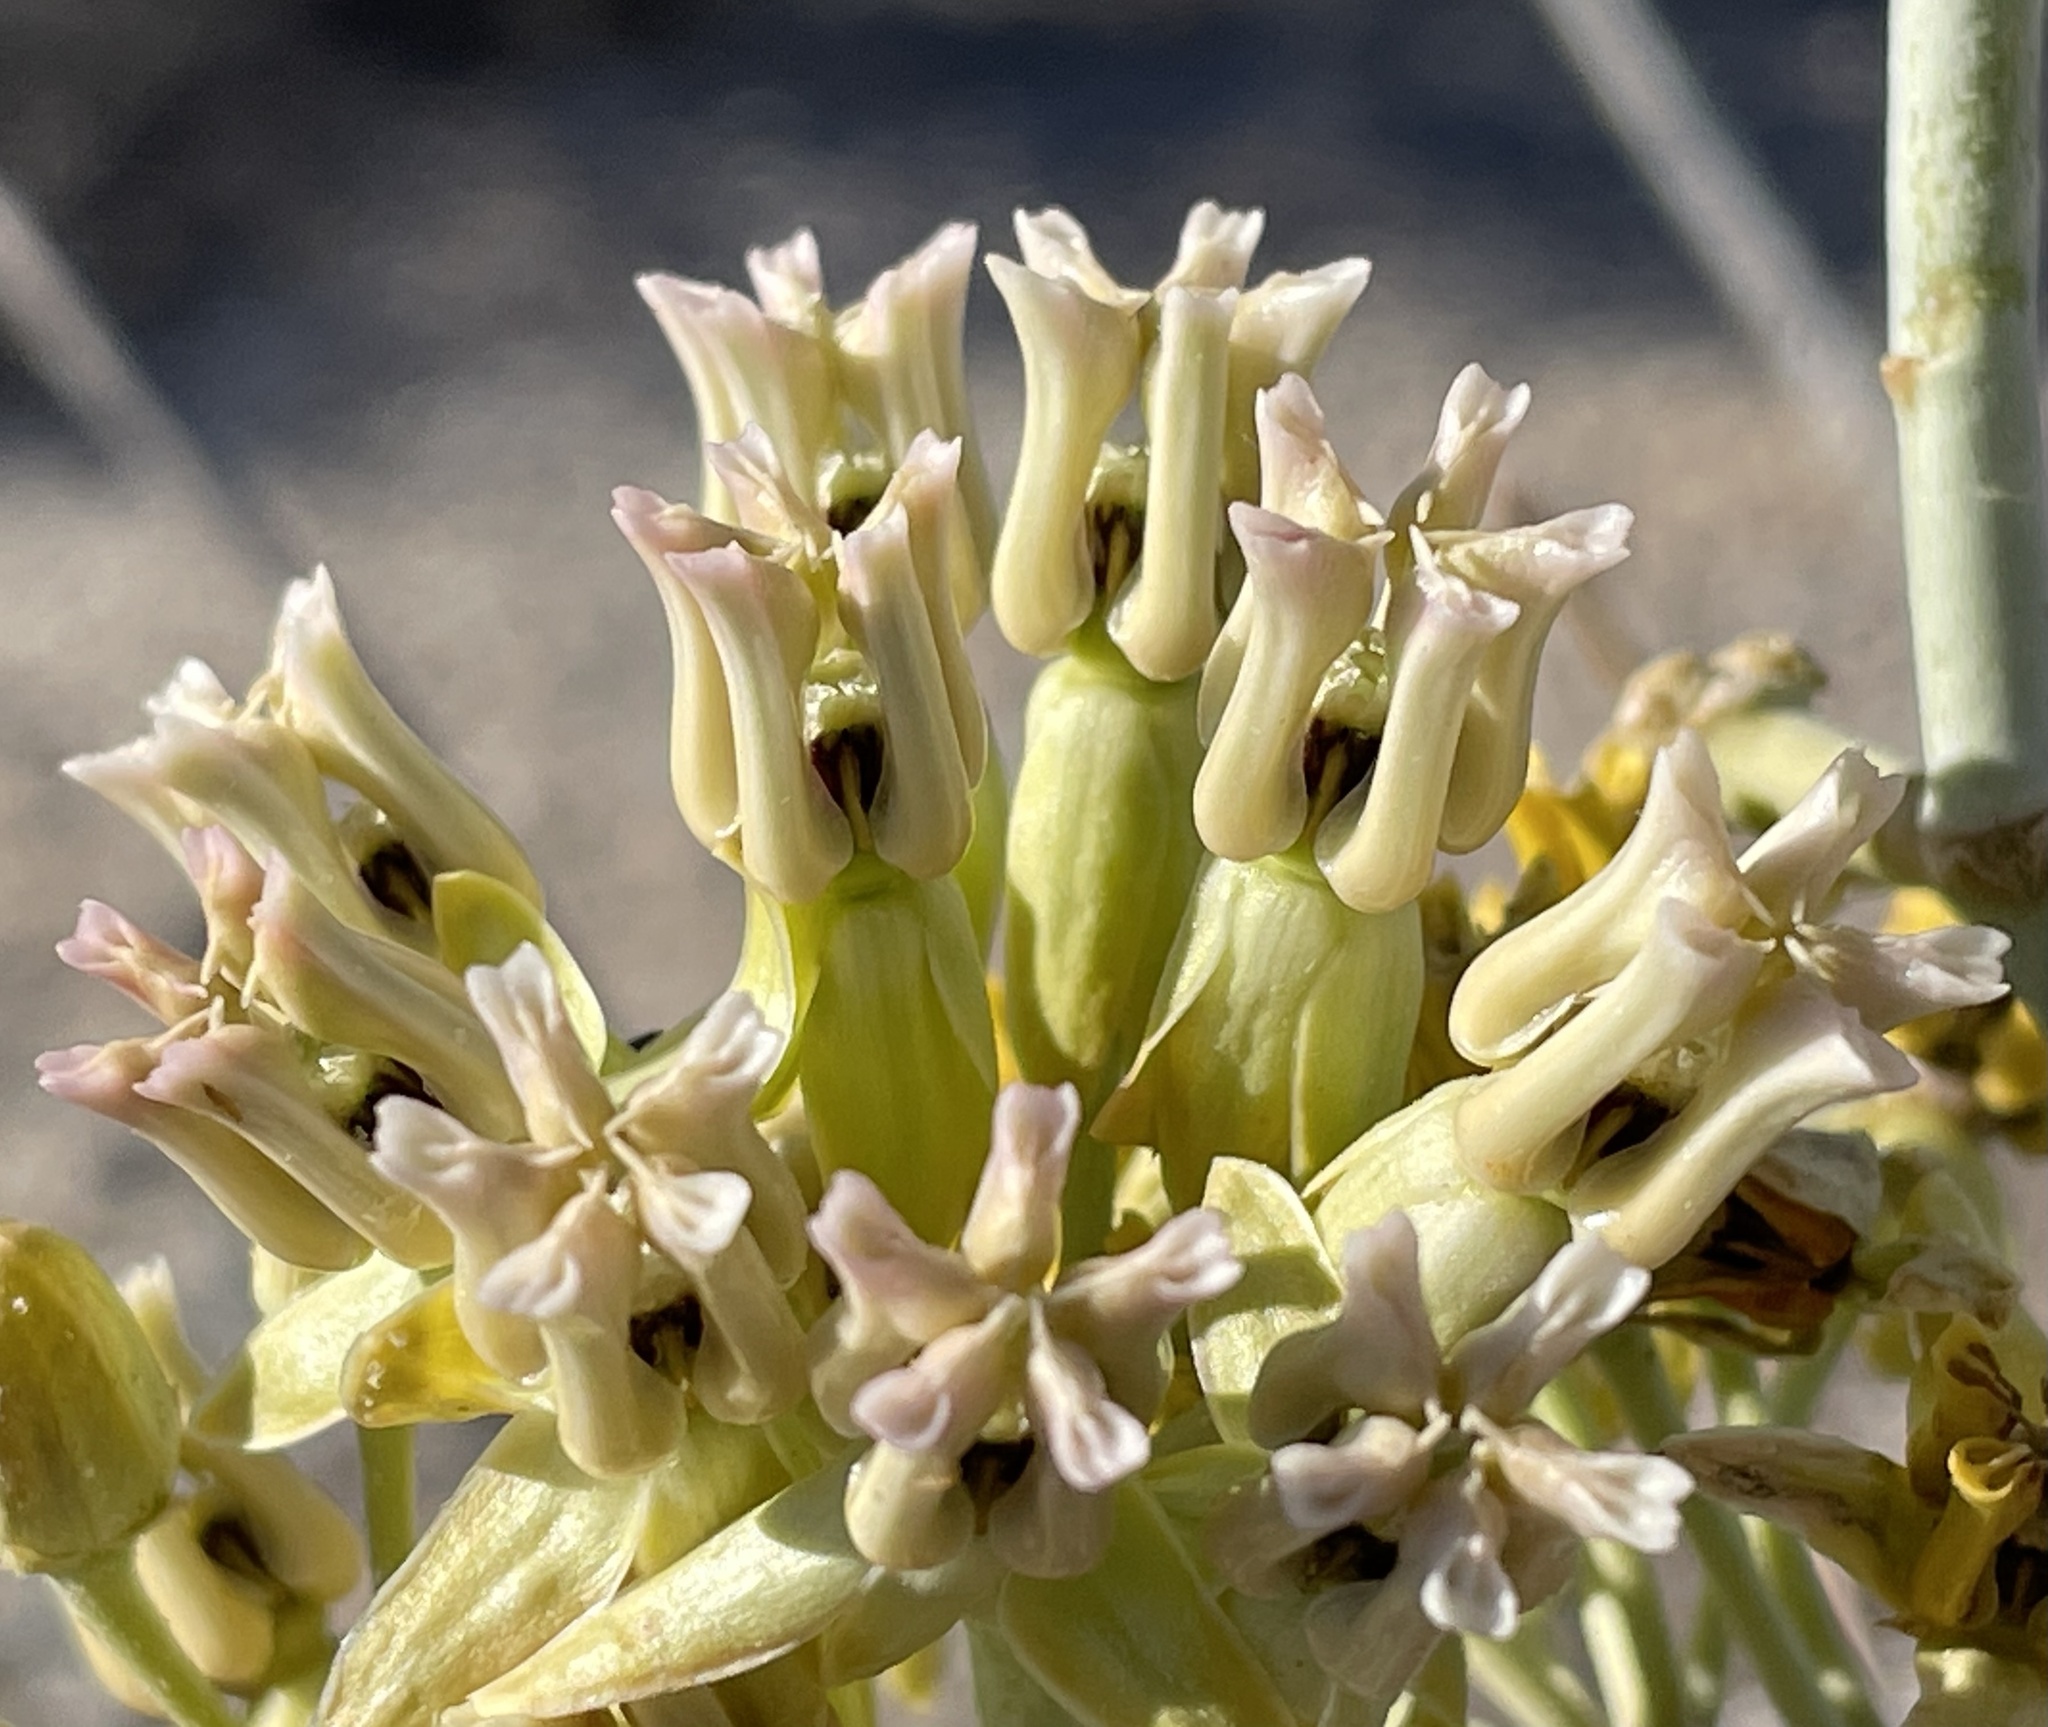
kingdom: Plantae
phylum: Tracheophyta
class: Magnoliopsida
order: Gentianales
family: Apocynaceae
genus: Asclepias
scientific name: Asclepias subulata
